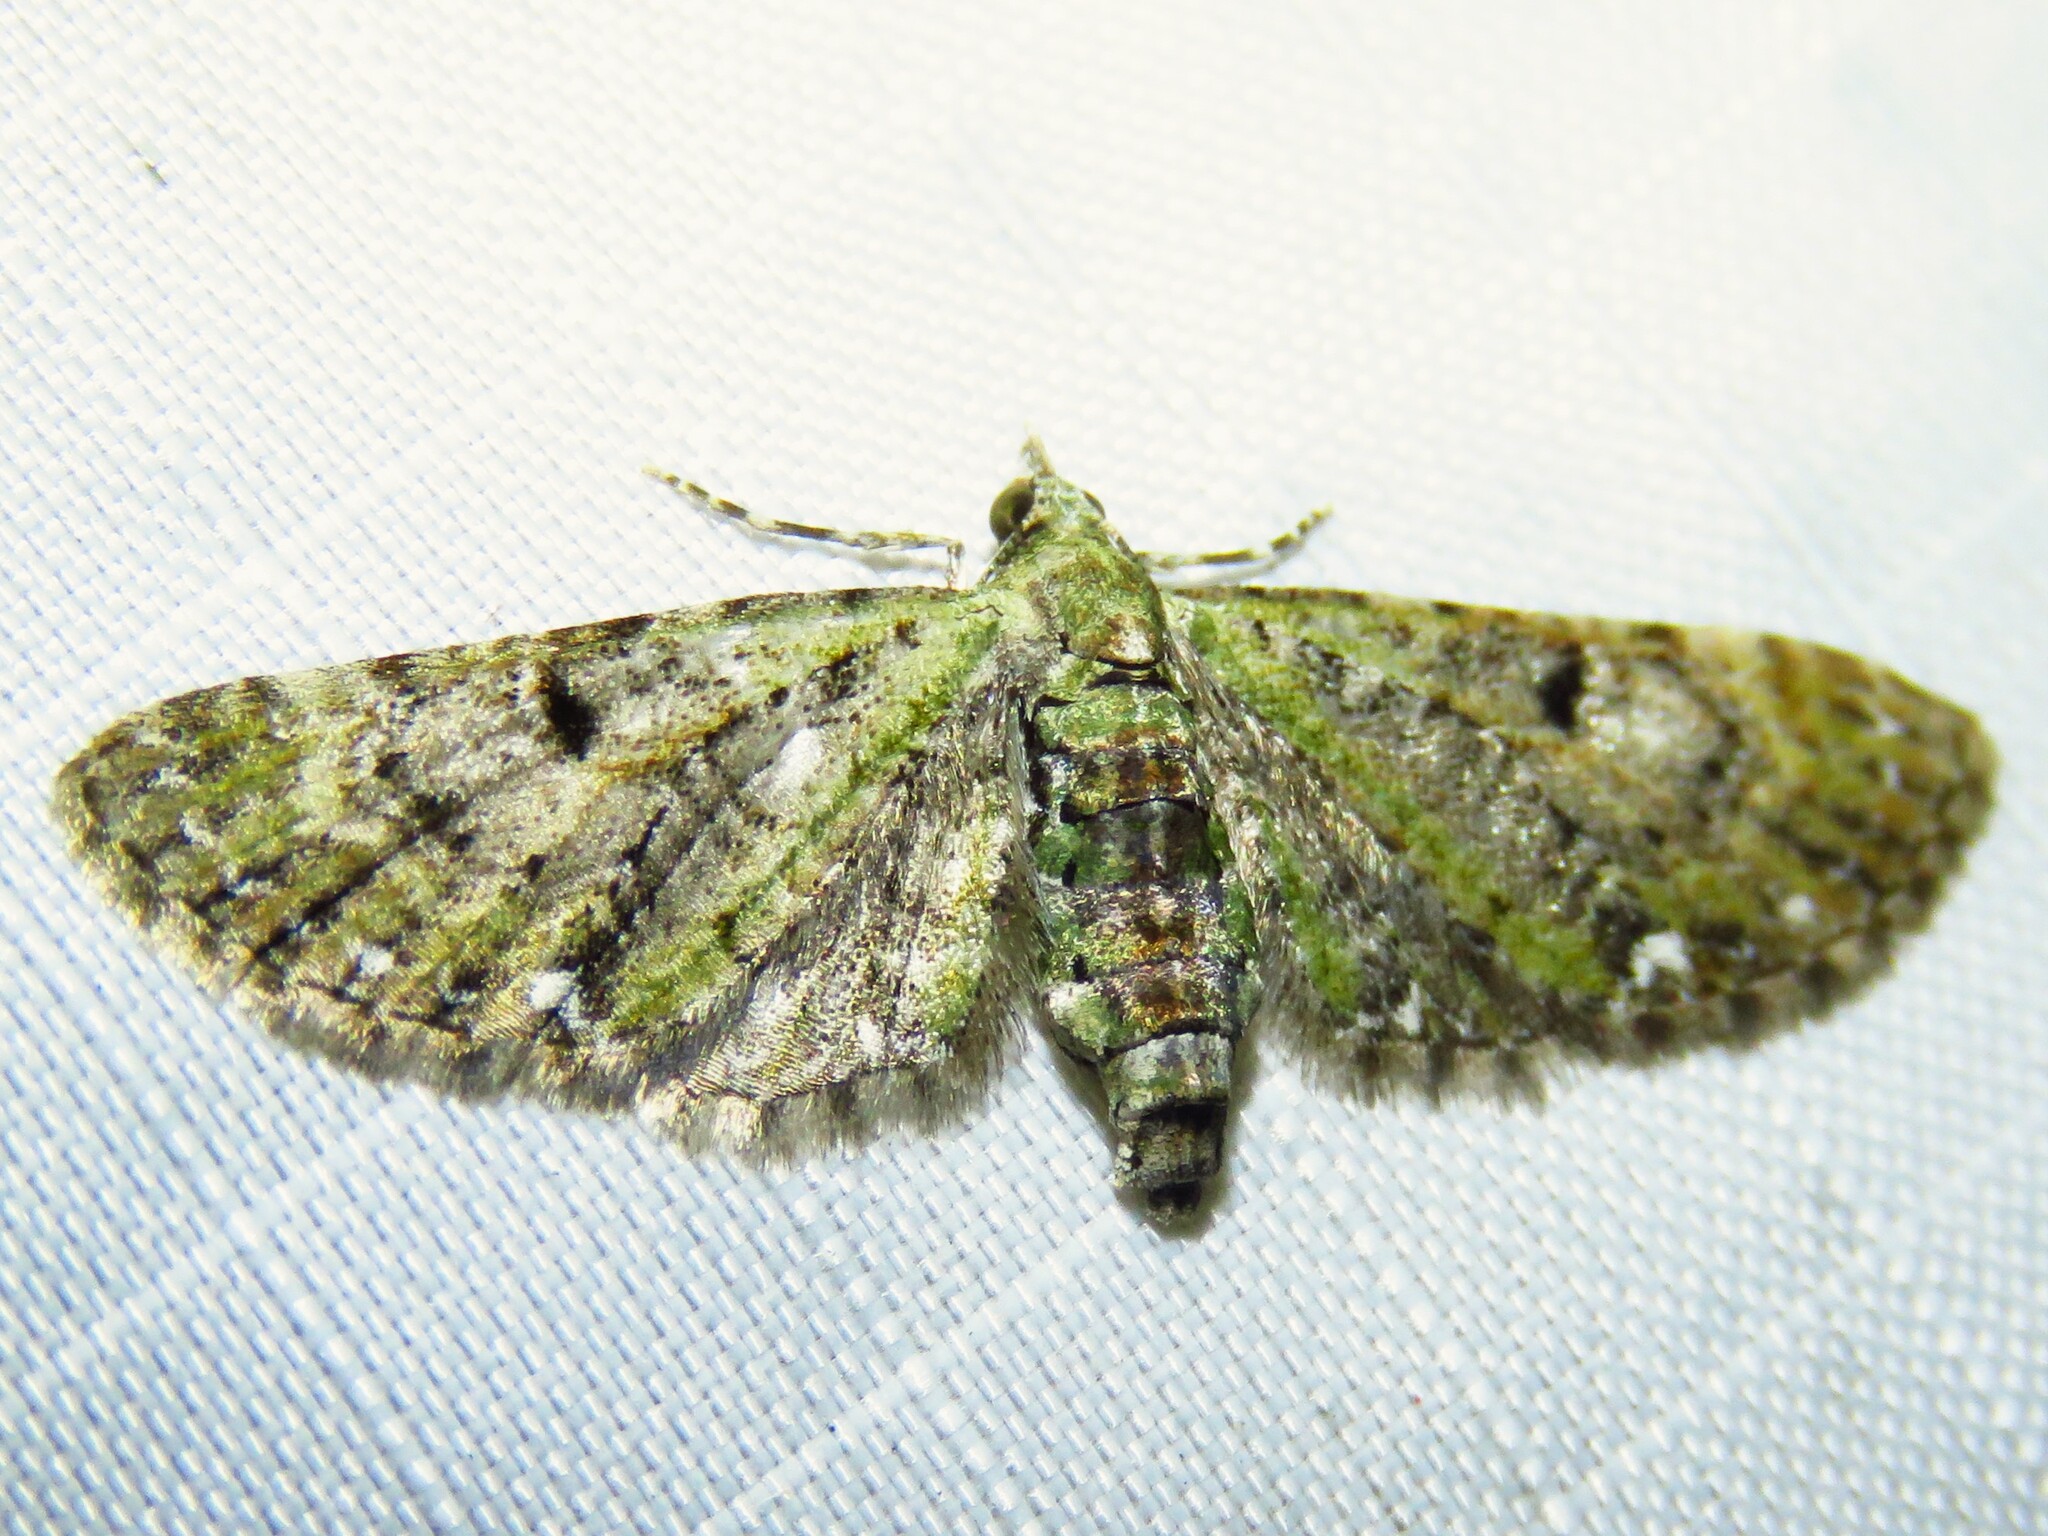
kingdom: Animalia
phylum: Arthropoda
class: Insecta
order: Lepidoptera
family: Geometridae
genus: Eupithecia
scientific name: Eupithecia miserulata
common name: Common eupithecia
